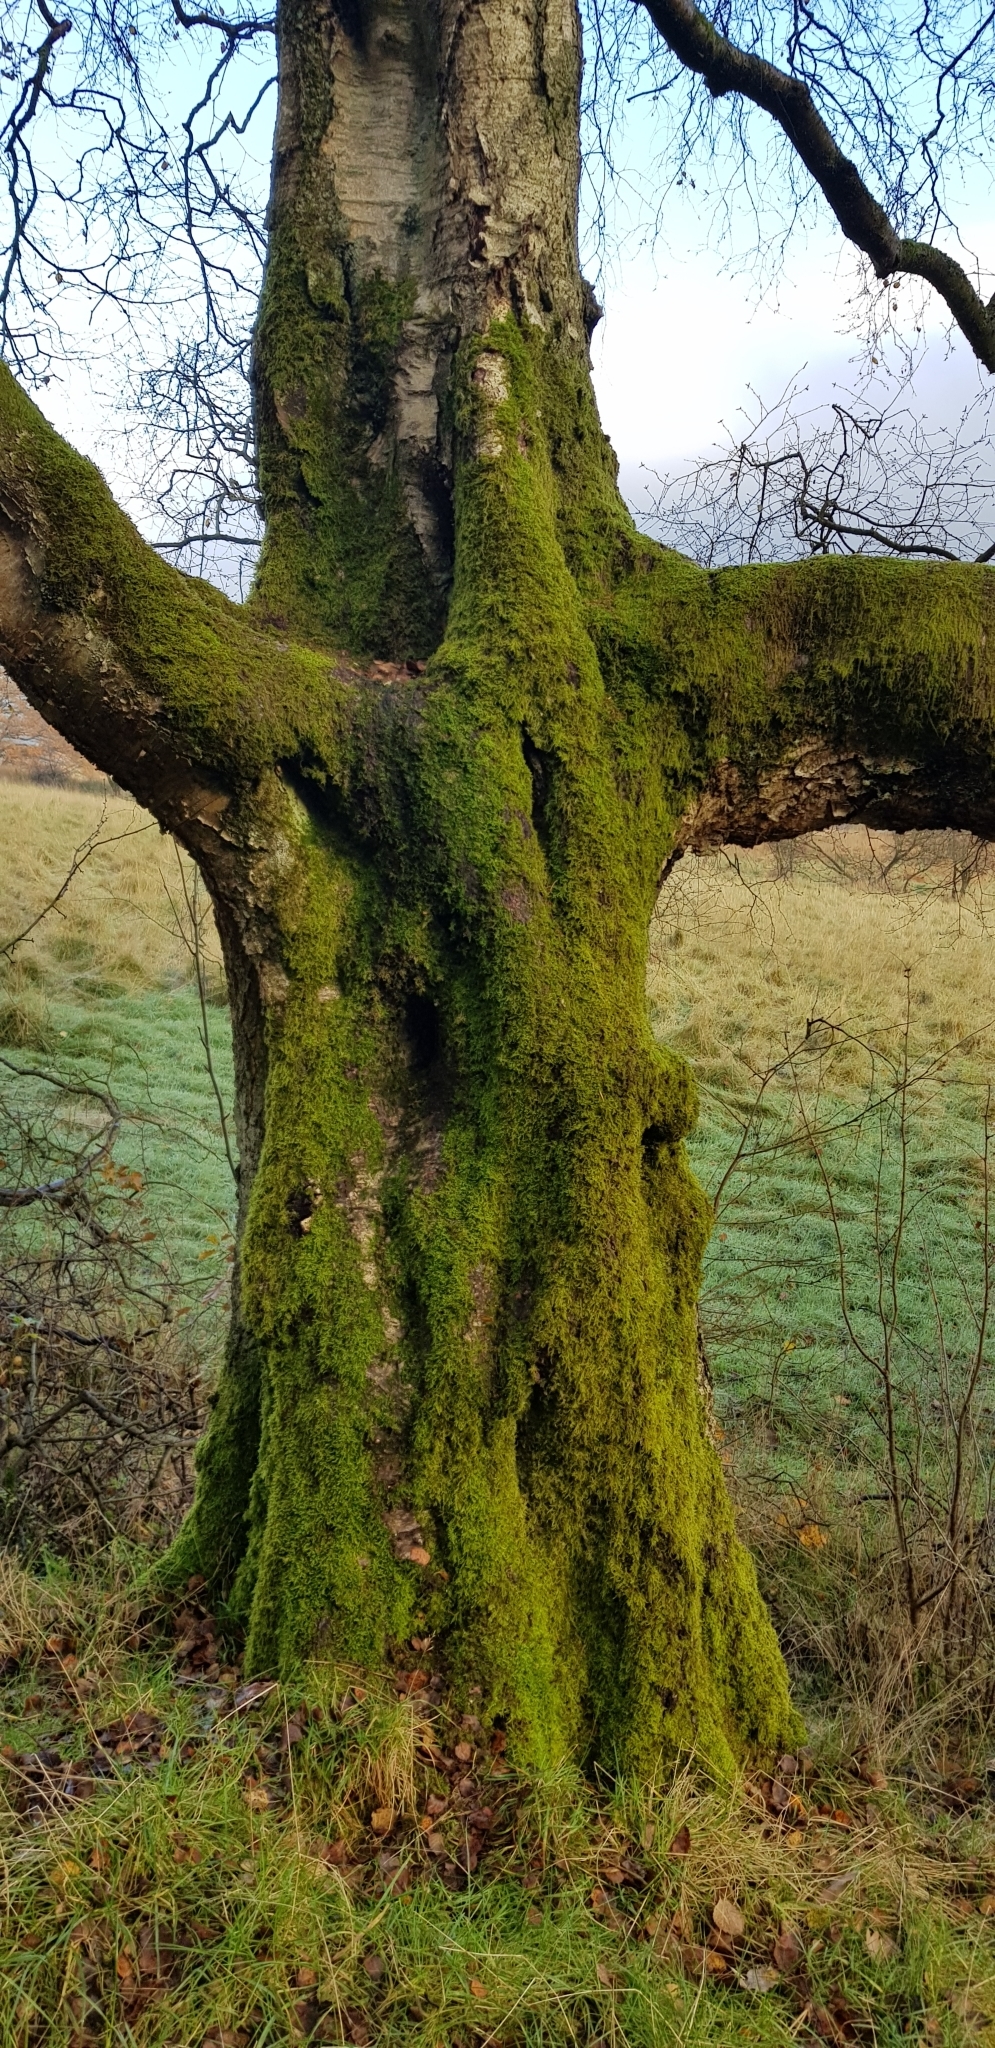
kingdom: Plantae
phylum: Bryophyta
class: Bryopsida
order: Dicranales
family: Rhabdoweisiaceae
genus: Dicranoweisia
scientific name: Dicranoweisia cirrata
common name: Common pincushion
